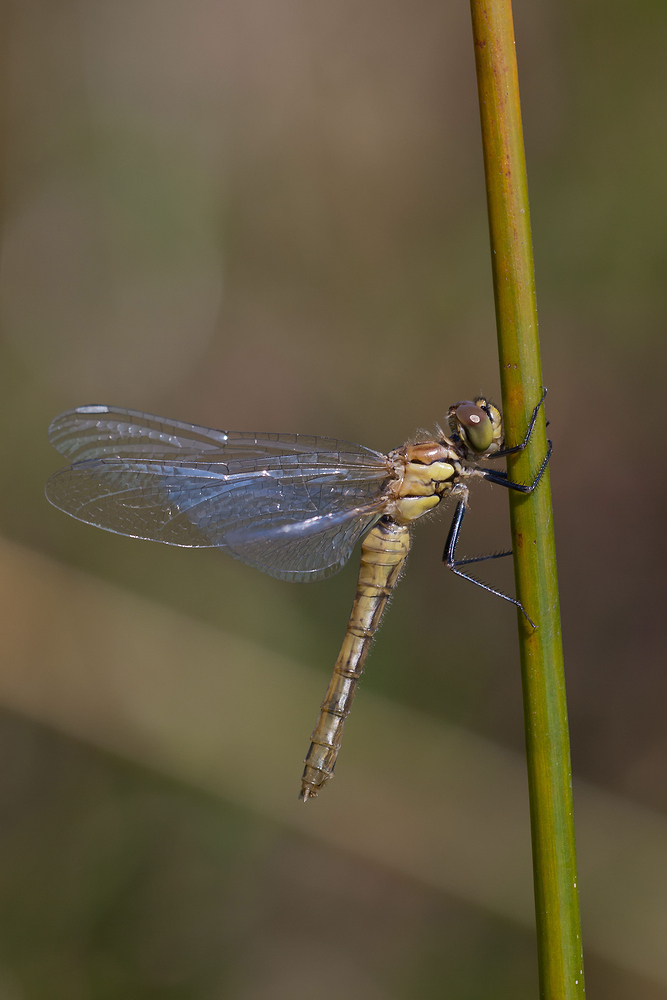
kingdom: Animalia
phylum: Arthropoda
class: Insecta
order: Odonata
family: Libellulidae
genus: Sympetrum
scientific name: Sympetrum sanguineum
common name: Ruddy darter
